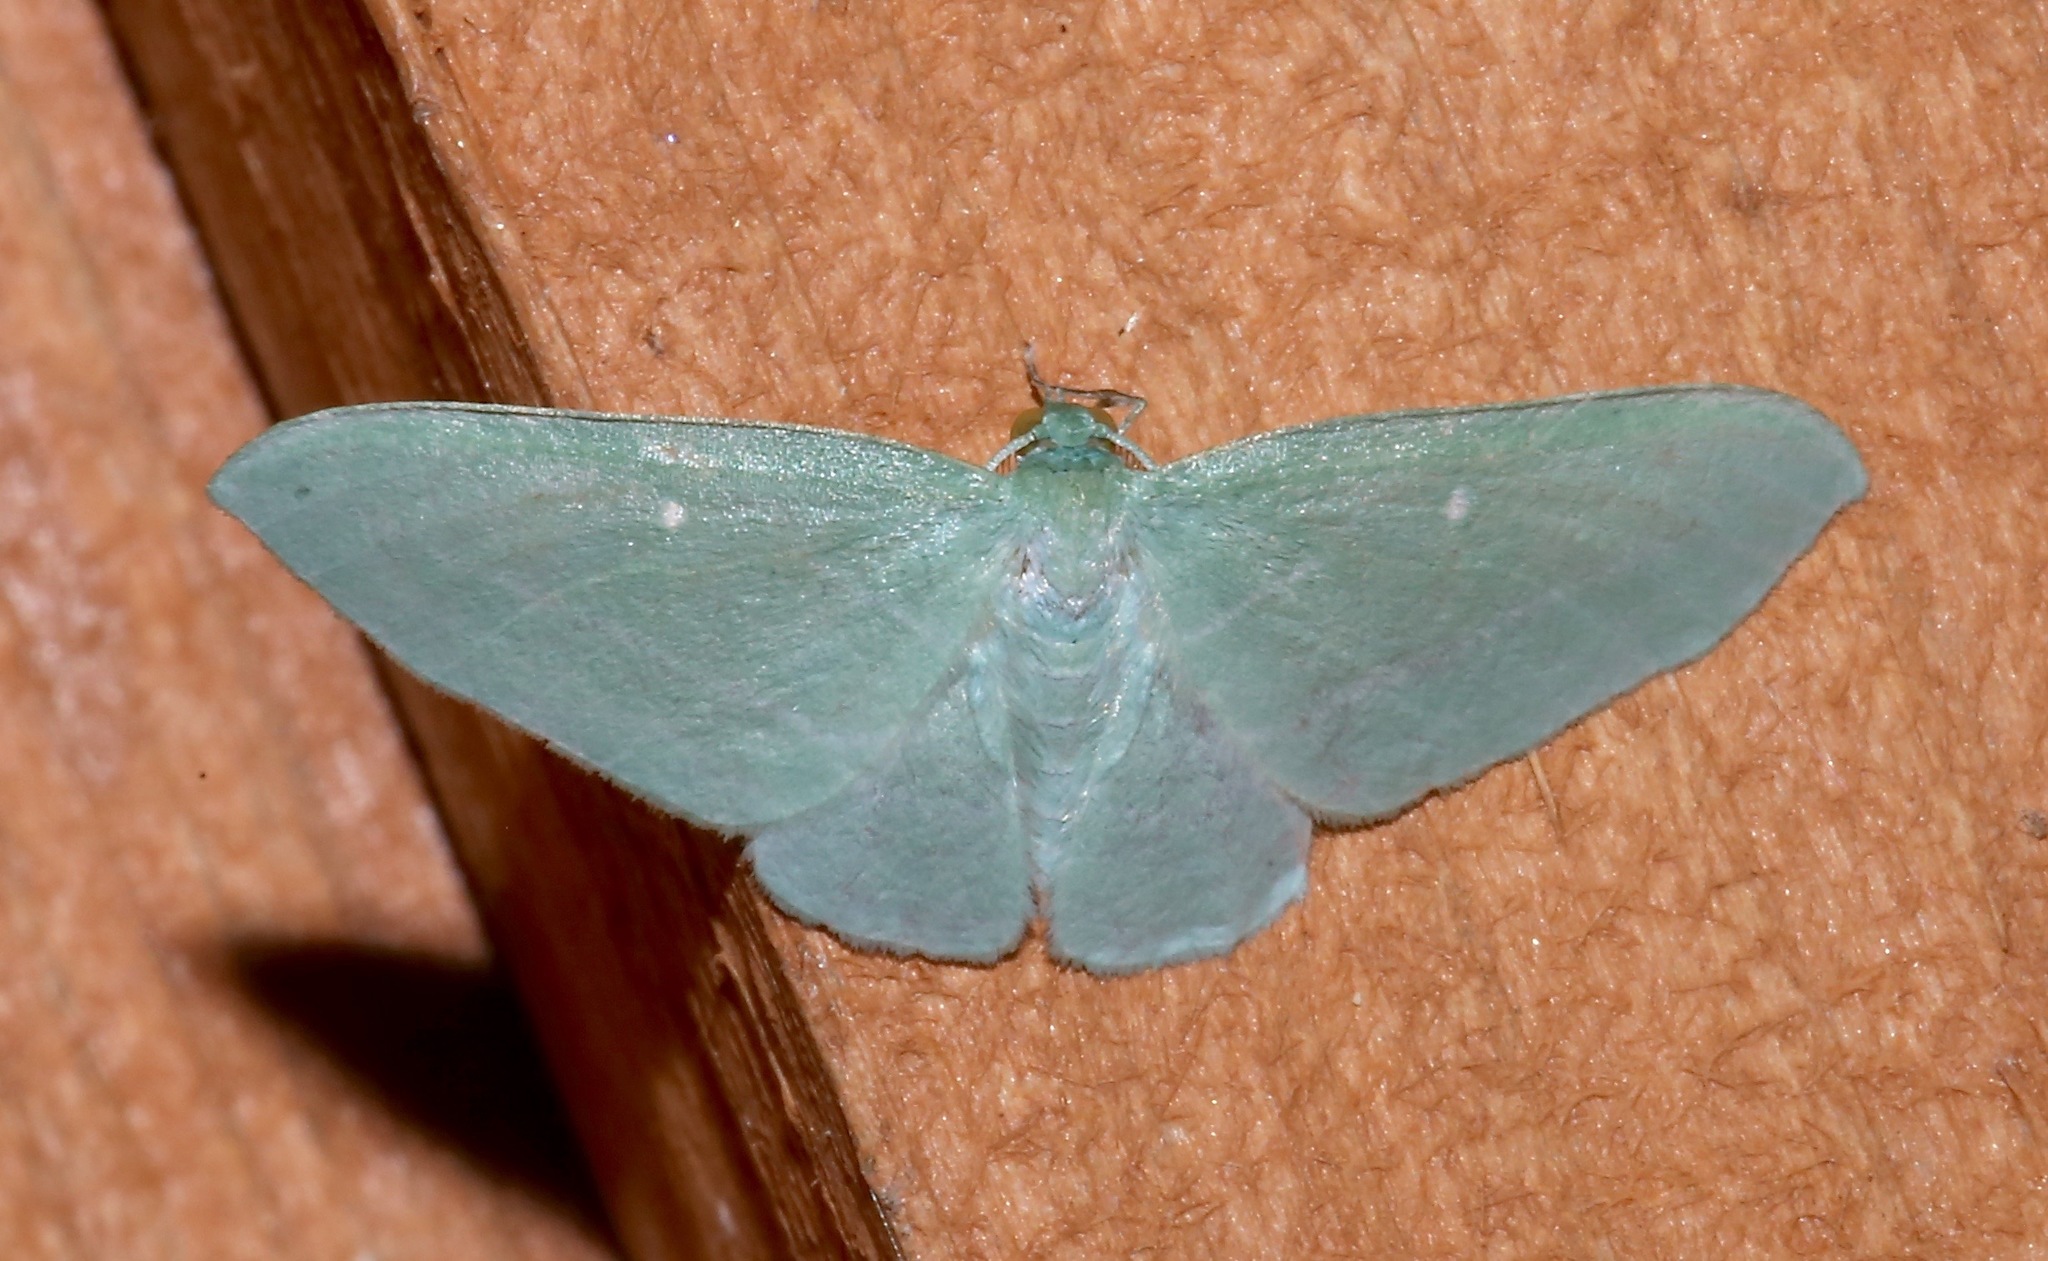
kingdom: Animalia
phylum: Arthropoda
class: Insecta
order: Lepidoptera
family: Geometridae
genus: Dyspteris
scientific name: Dyspteris abortivaria
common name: Bad-wing
